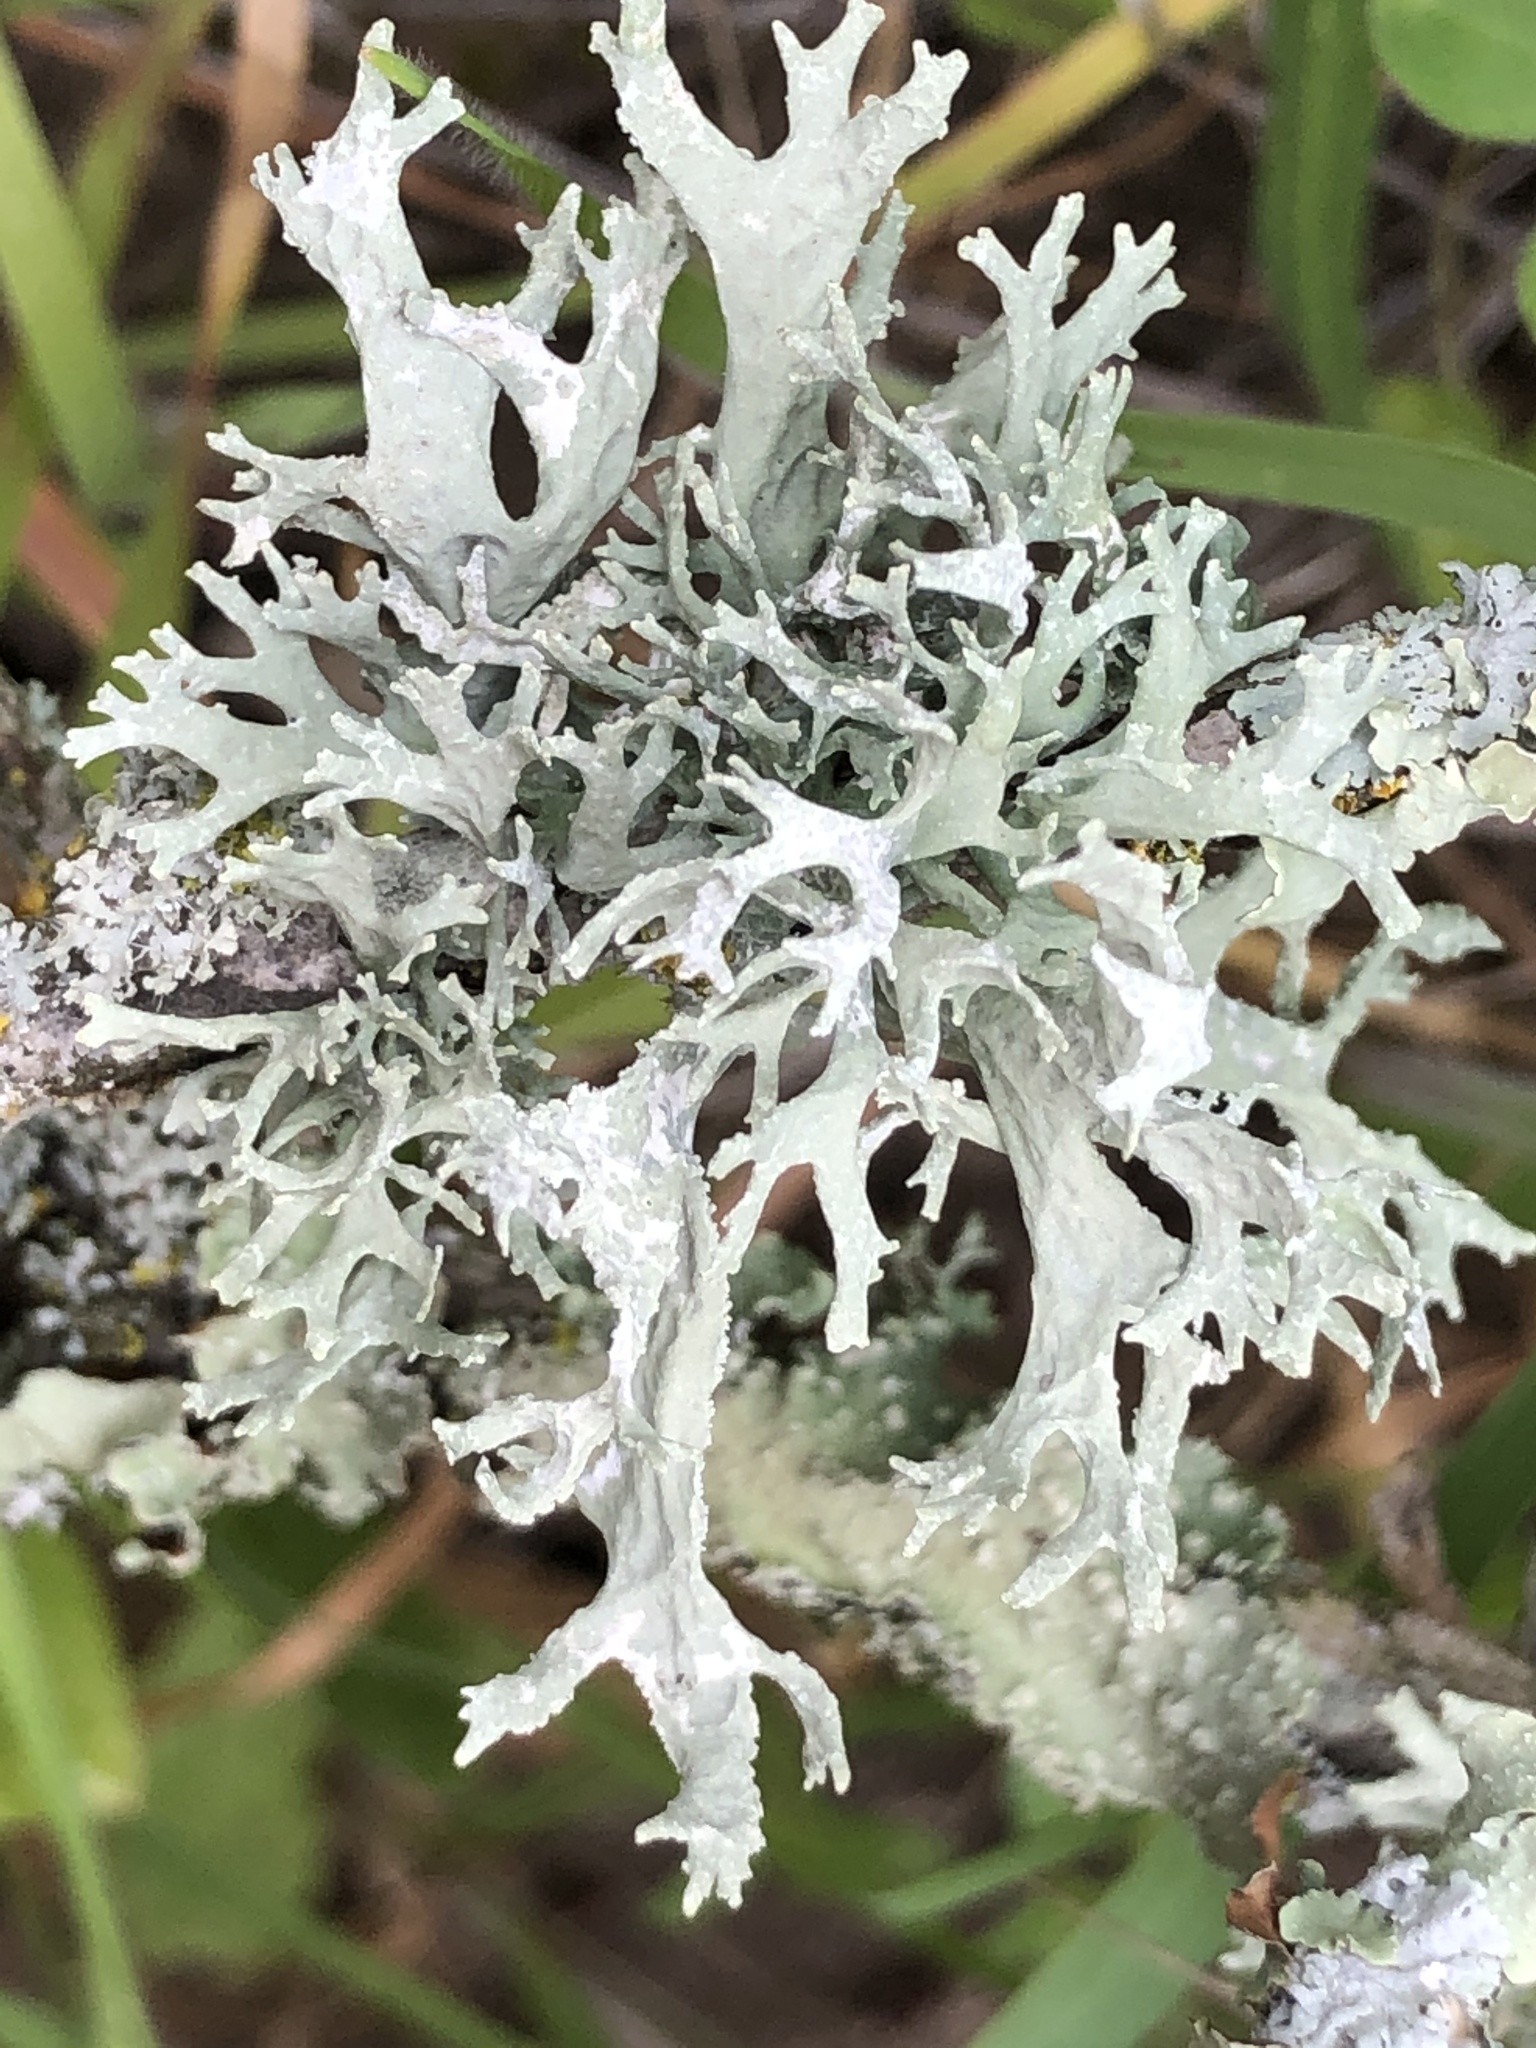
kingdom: Fungi
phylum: Ascomycota
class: Lecanoromycetes
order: Lecanorales
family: Parmeliaceae
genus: Evernia
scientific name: Evernia prunastri
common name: Oak moss
